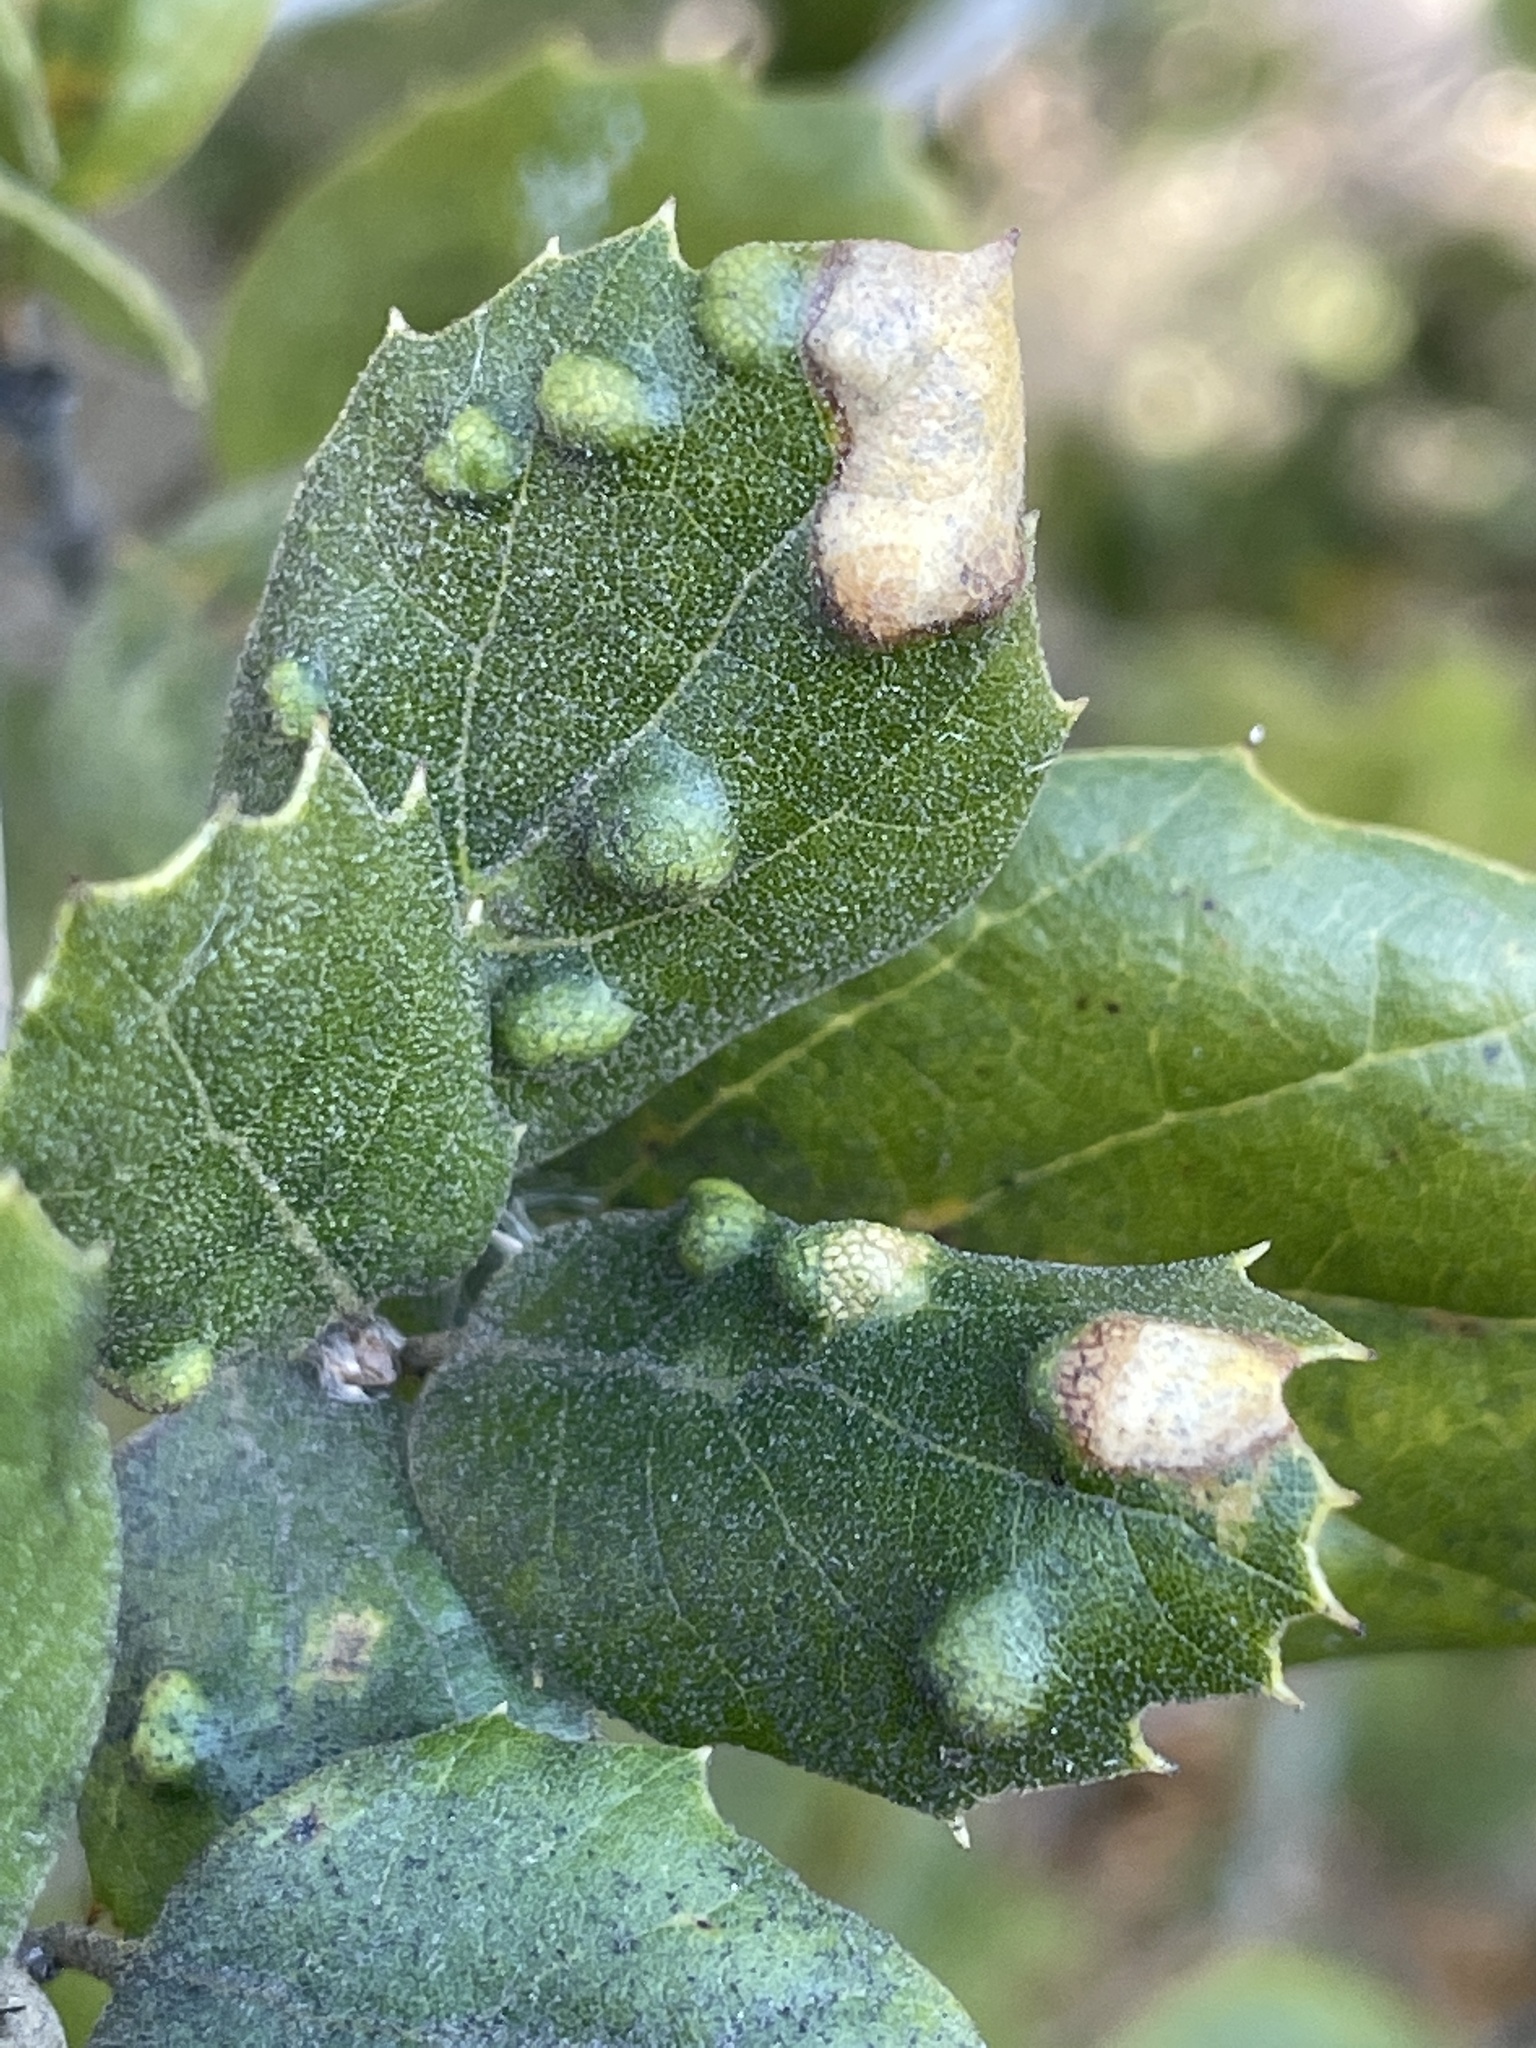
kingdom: Animalia
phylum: Arthropoda
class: Arachnida
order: Trombidiformes
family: Eriophyidae
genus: Aceria
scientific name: Aceria
